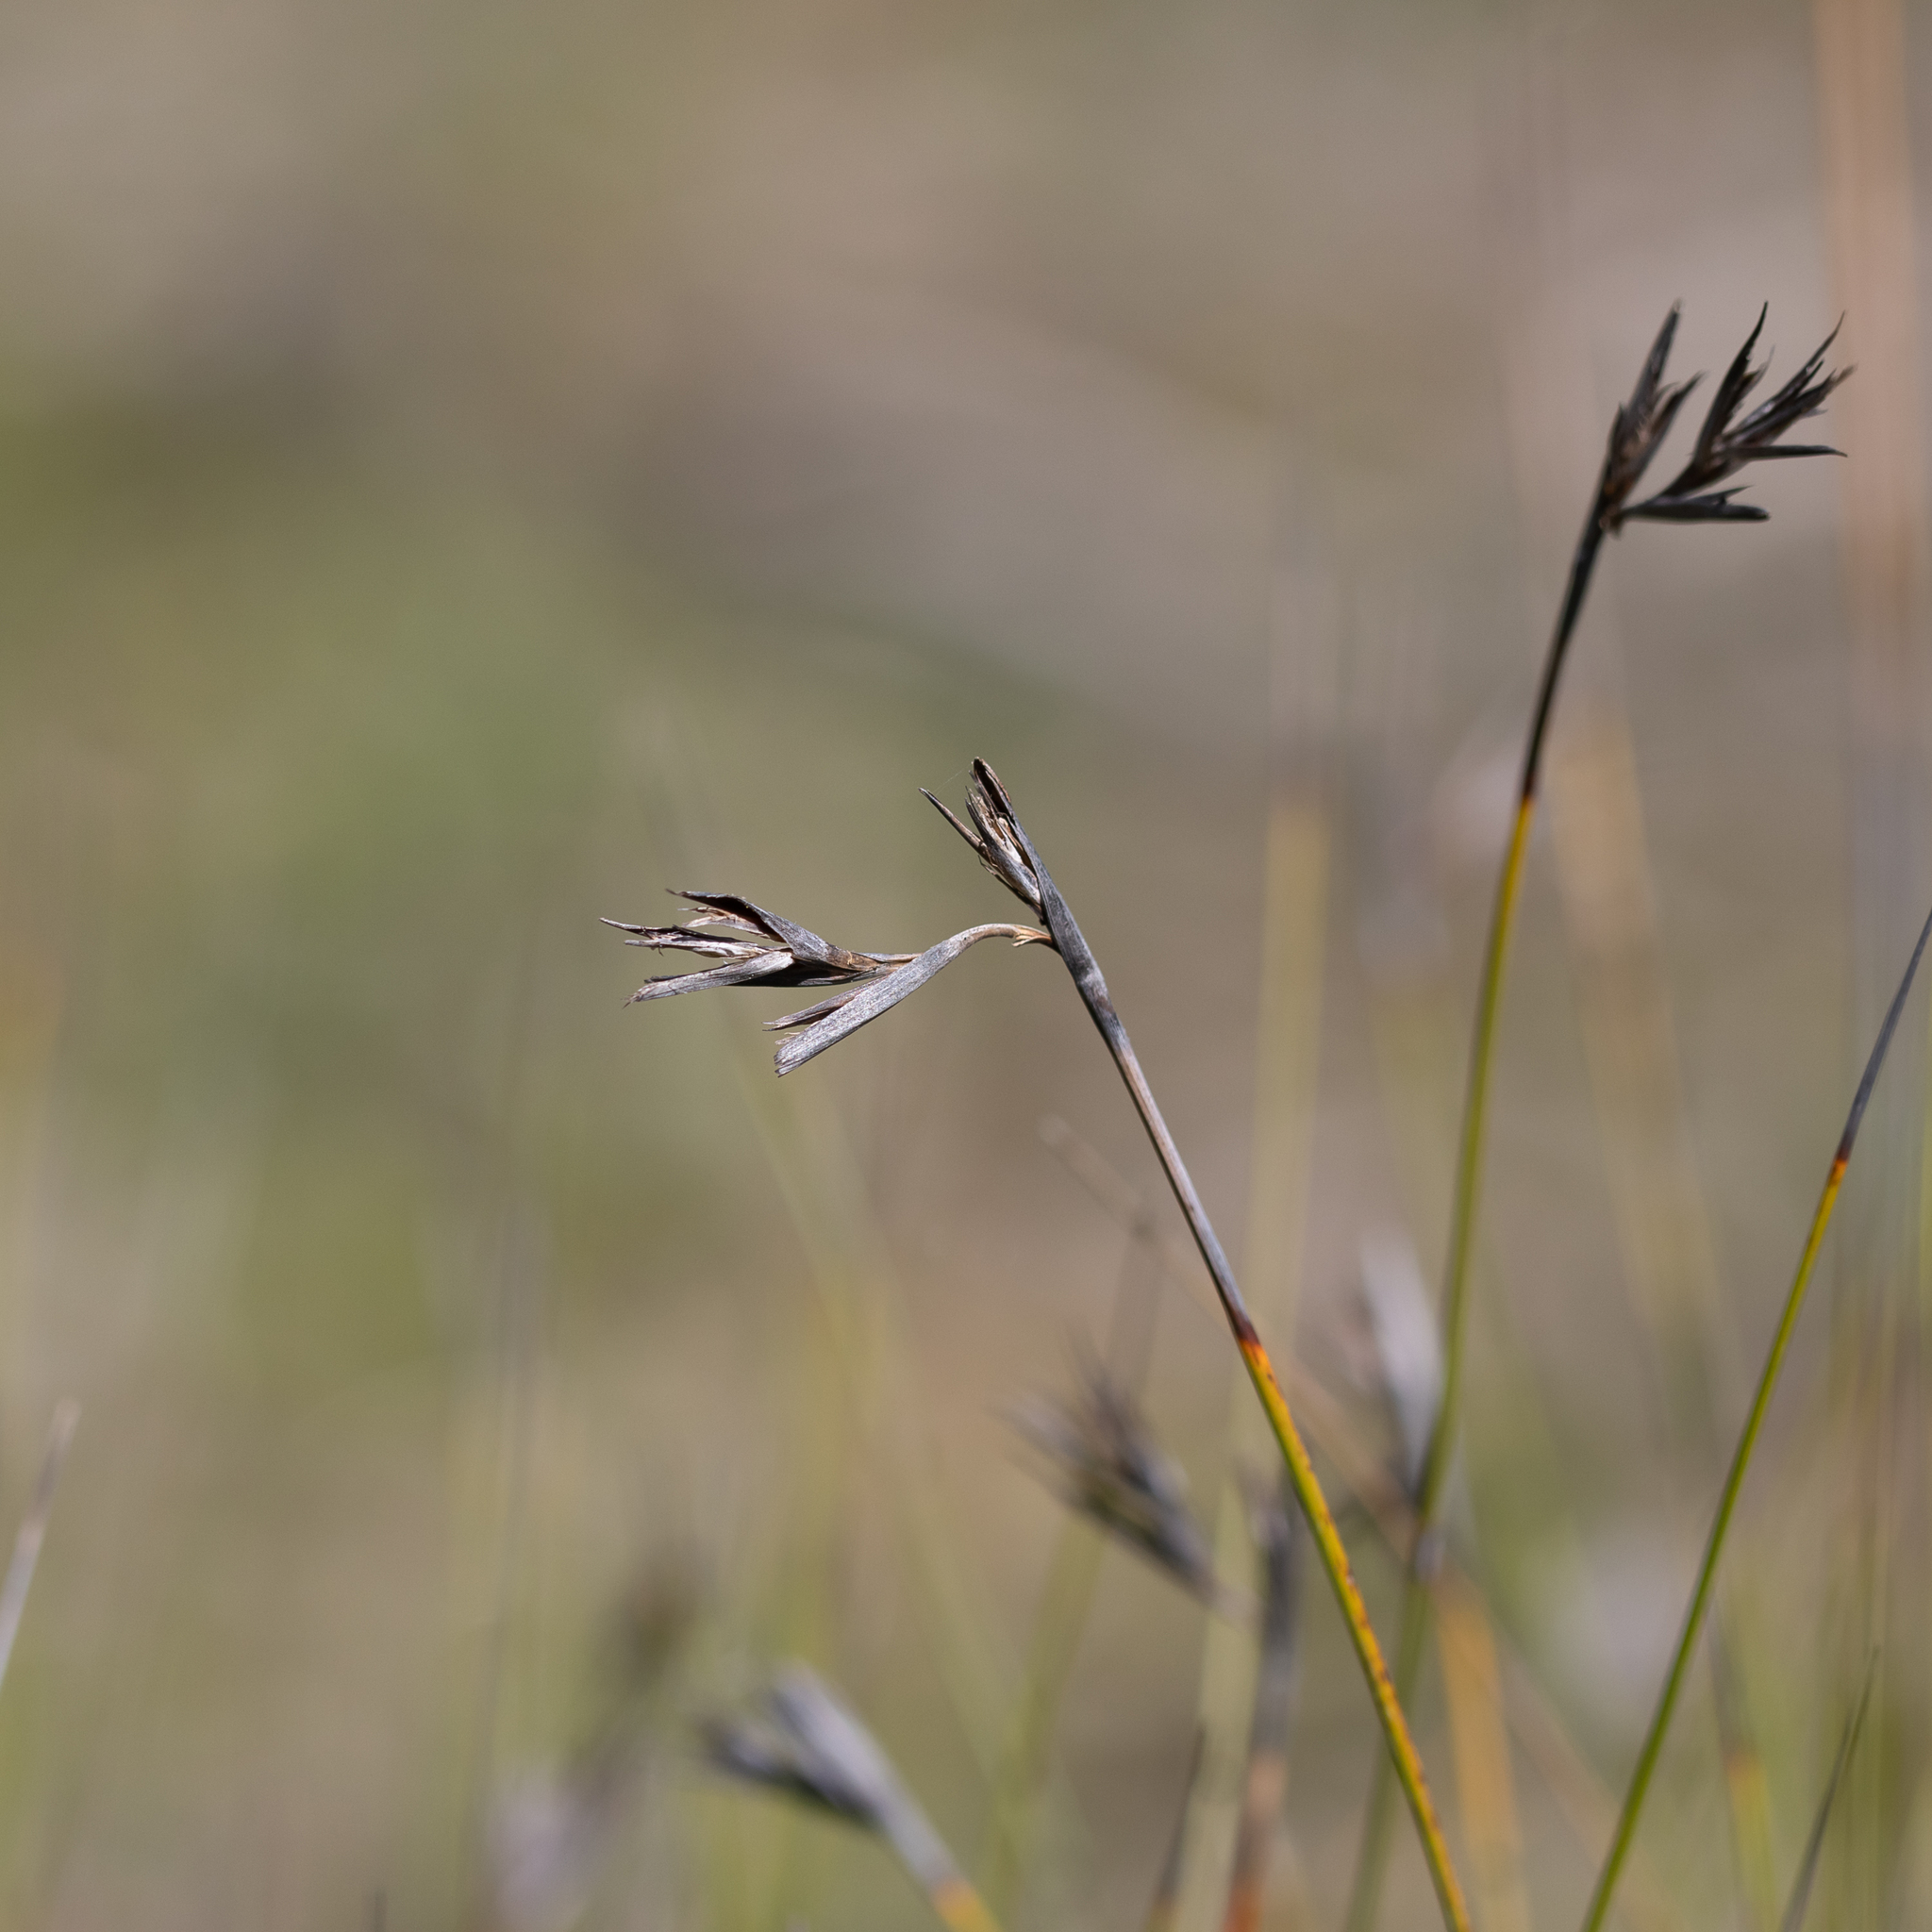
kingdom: Plantae
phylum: Tracheophyta
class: Liliopsida
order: Poales
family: Cyperaceae
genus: Lepidosperma
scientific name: Lepidosperma carphoides
